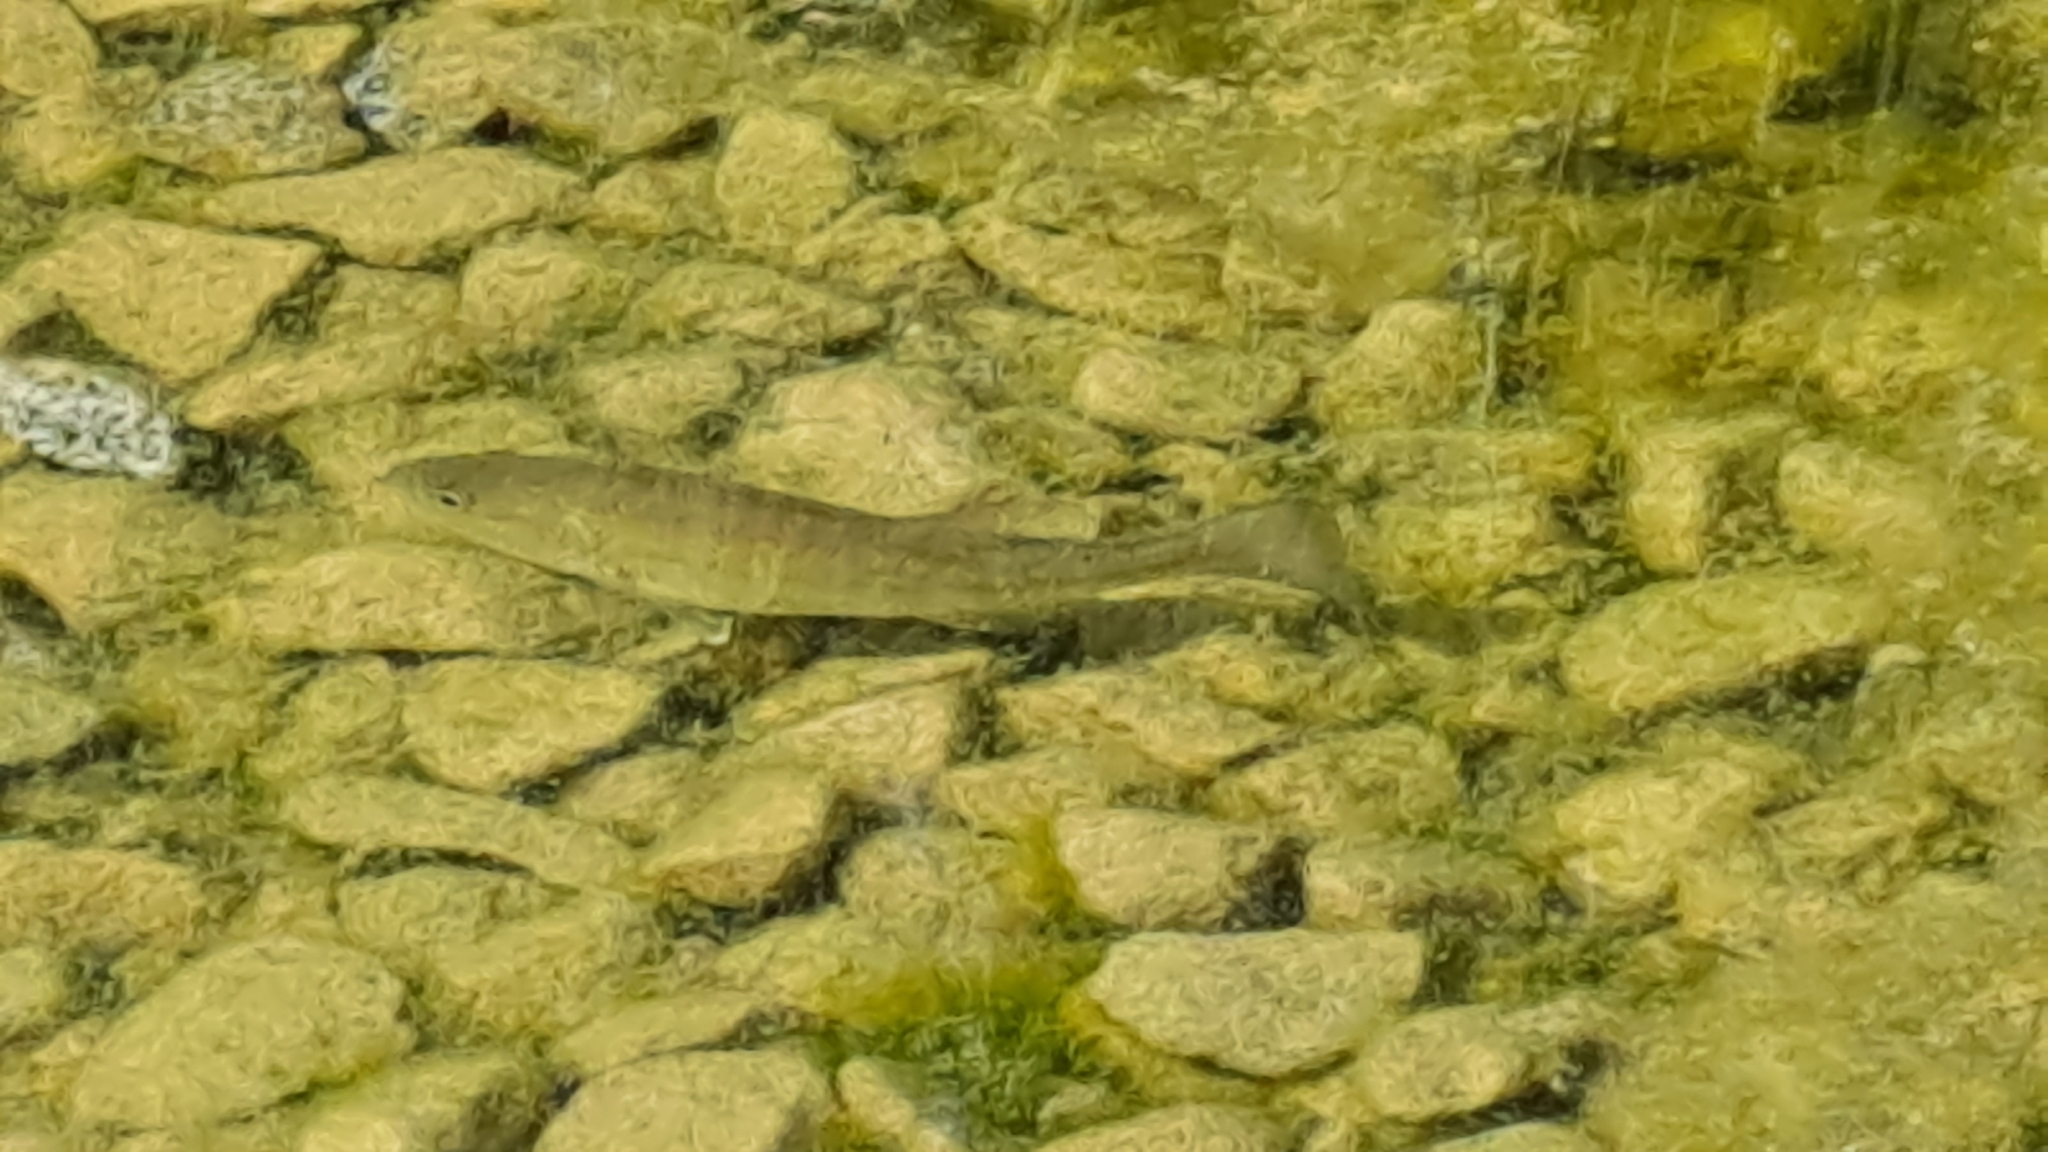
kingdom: Animalia
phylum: Chordata
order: Perciformes
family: Centrarchidae
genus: Micropterus
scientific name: Micropterus
